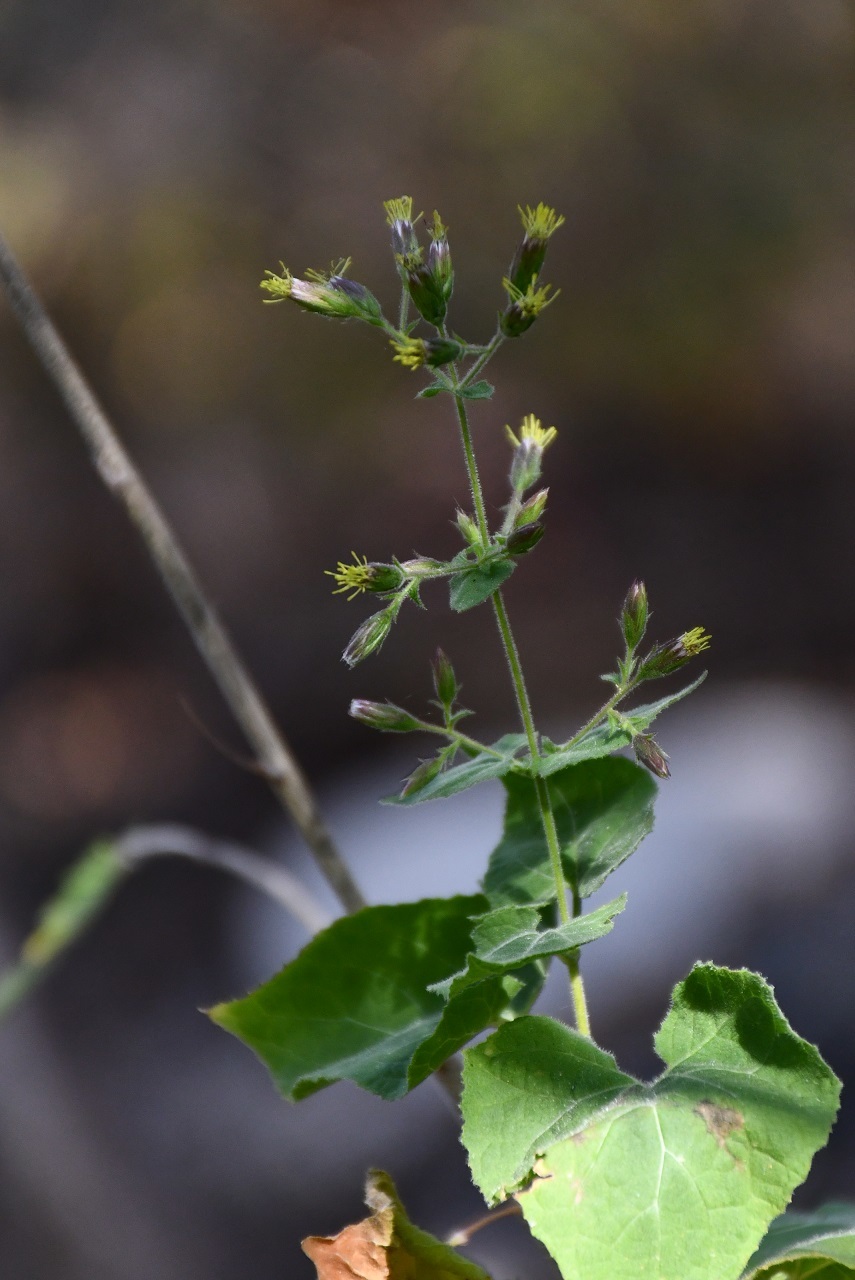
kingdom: Plantae
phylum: Tracheophyta
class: Magnoliopsida
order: Asterales
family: Asteraceae
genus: Peteravenia
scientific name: Peteravenia schultzii
